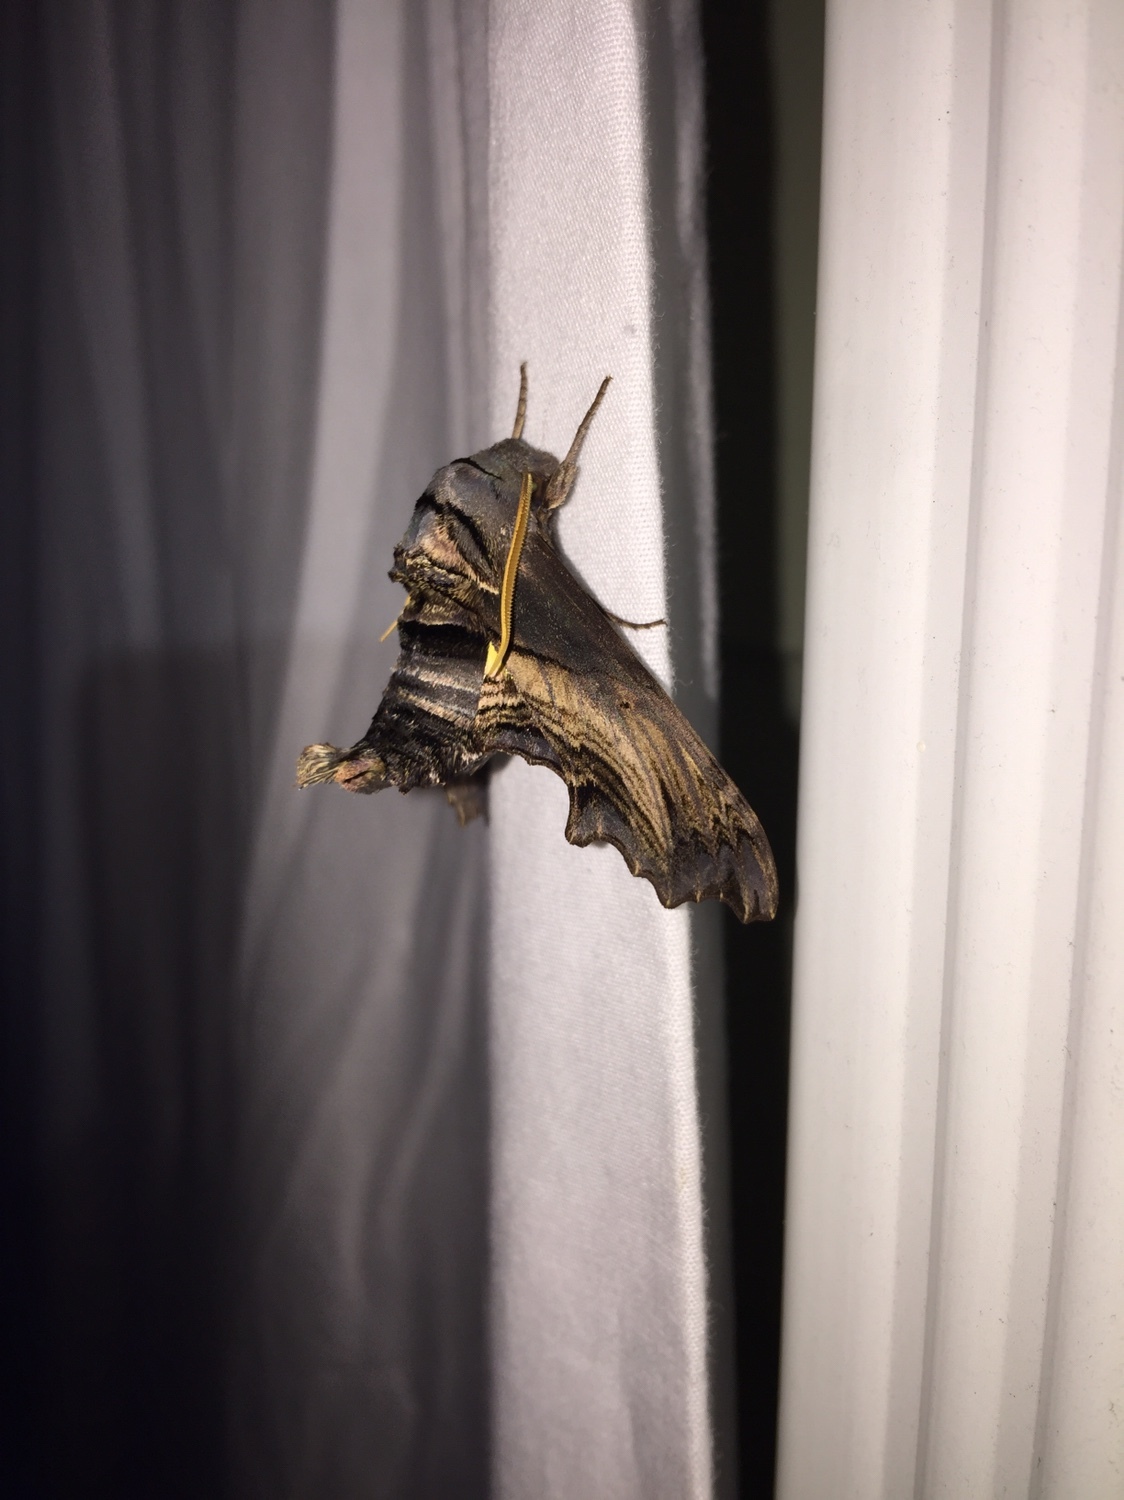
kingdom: Animalia
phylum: Arthropoda
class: Insecta
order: Lepidoptera
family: Sphingidae
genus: Sphecodina
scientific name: Sphecodina abbottii
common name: Abbott's sphinx
